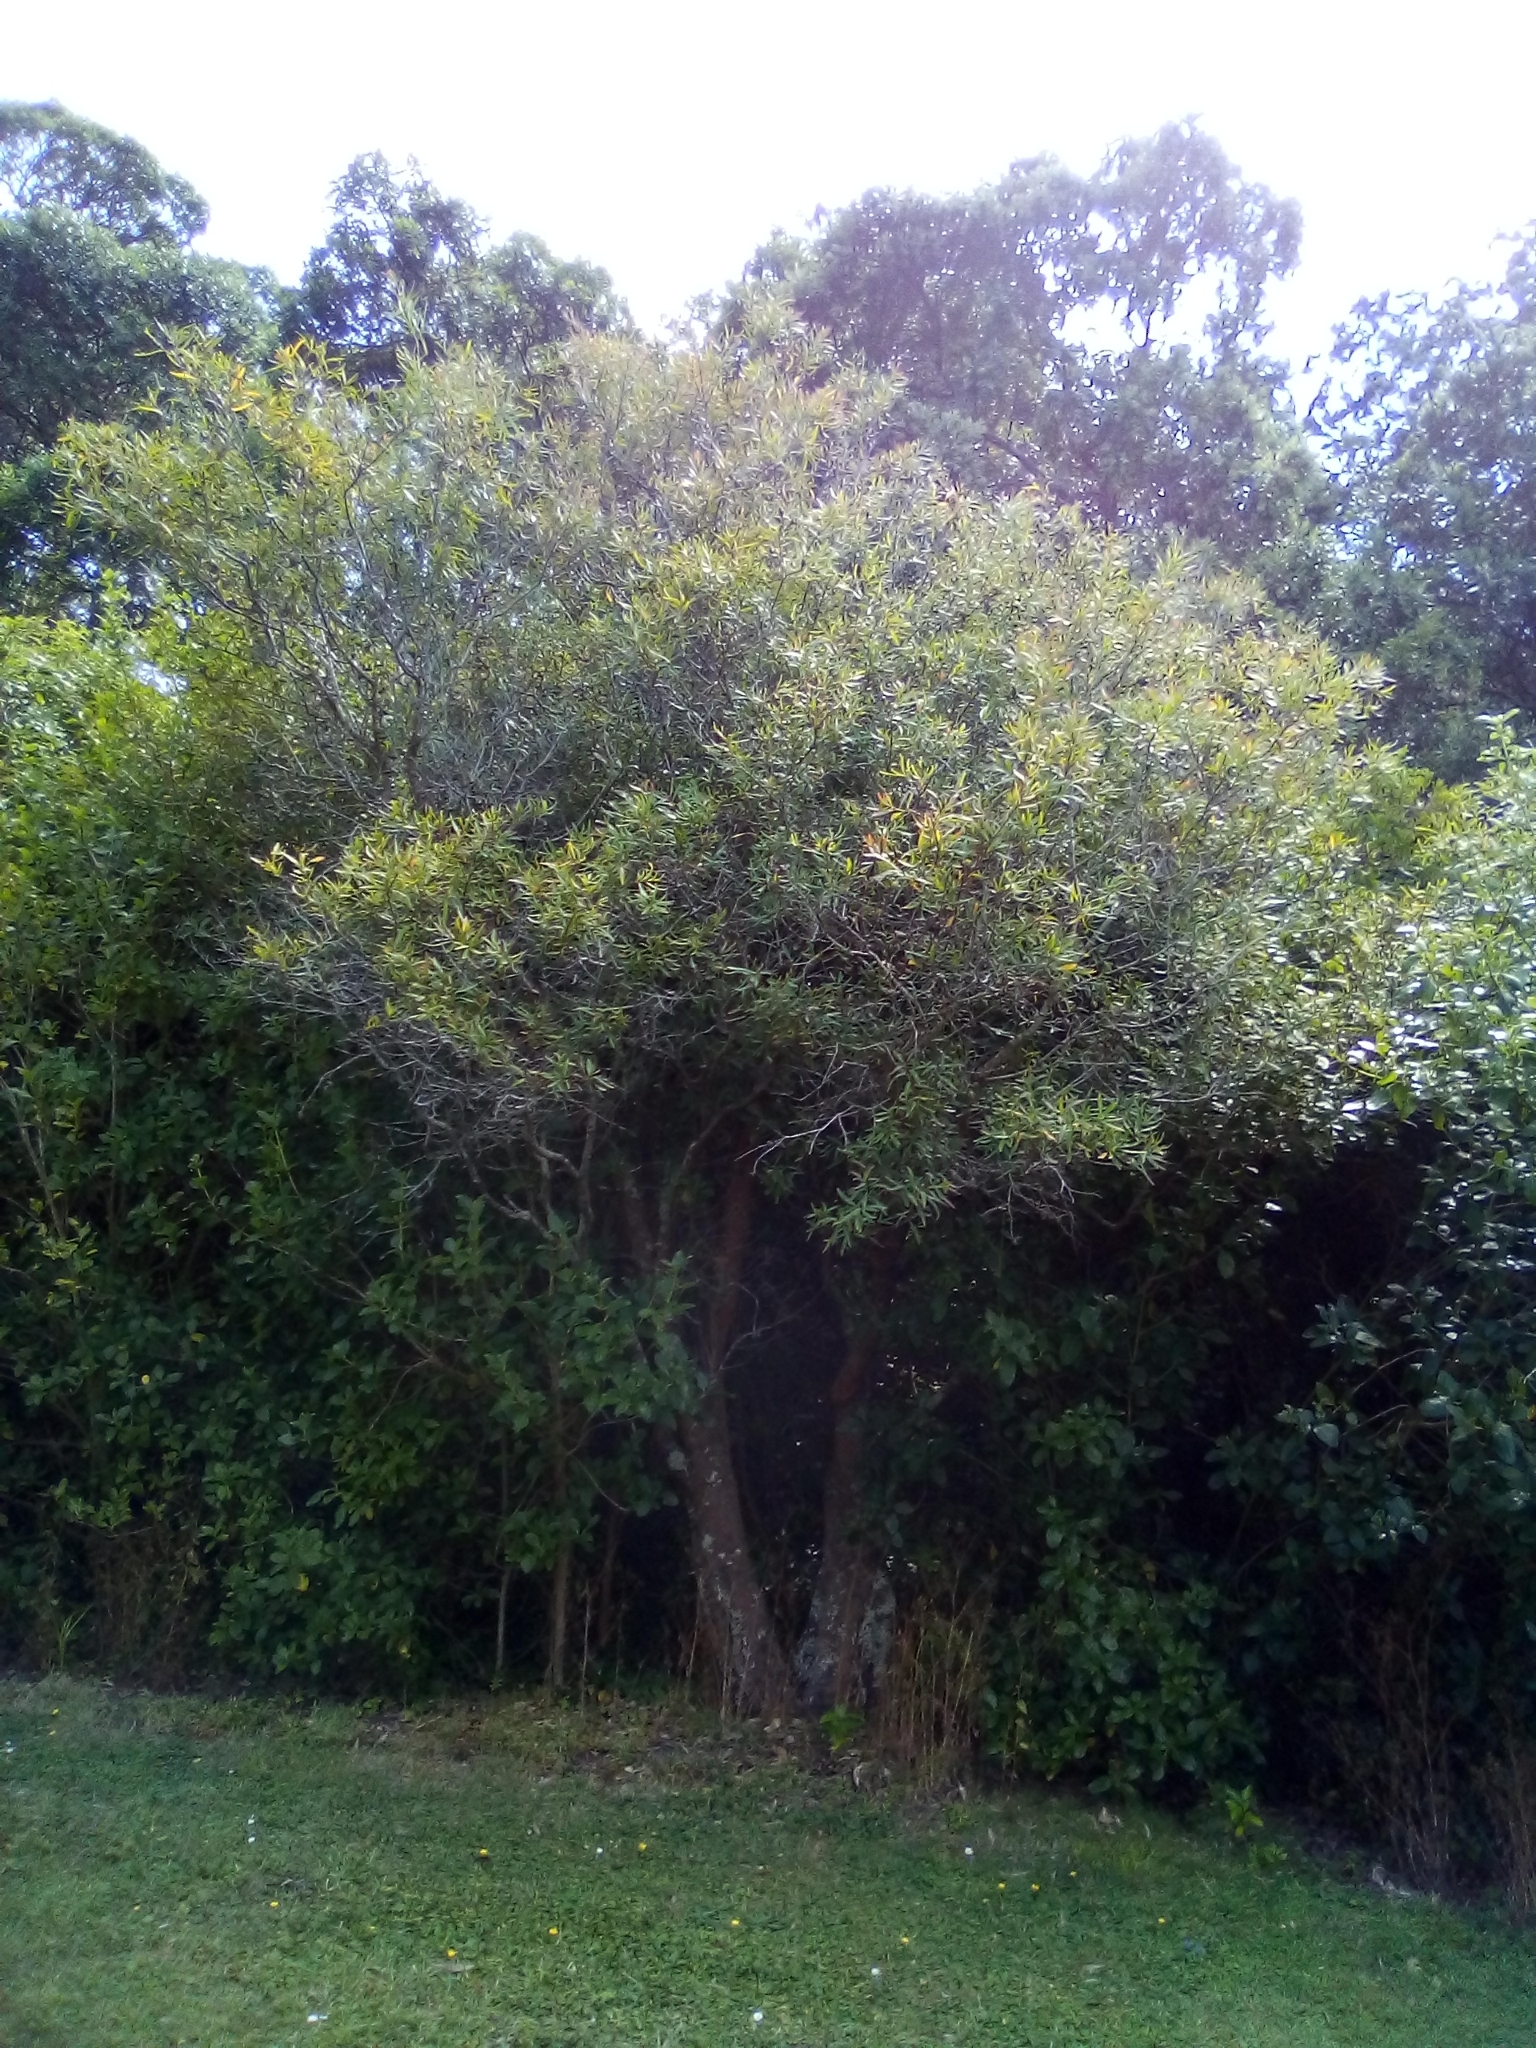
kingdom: Plantae
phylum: Tracheophyta
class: Magnoliopsida
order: Proteales
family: Proteaceae
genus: Hakea
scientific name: Hakea salicifolia
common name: Willow hakea
